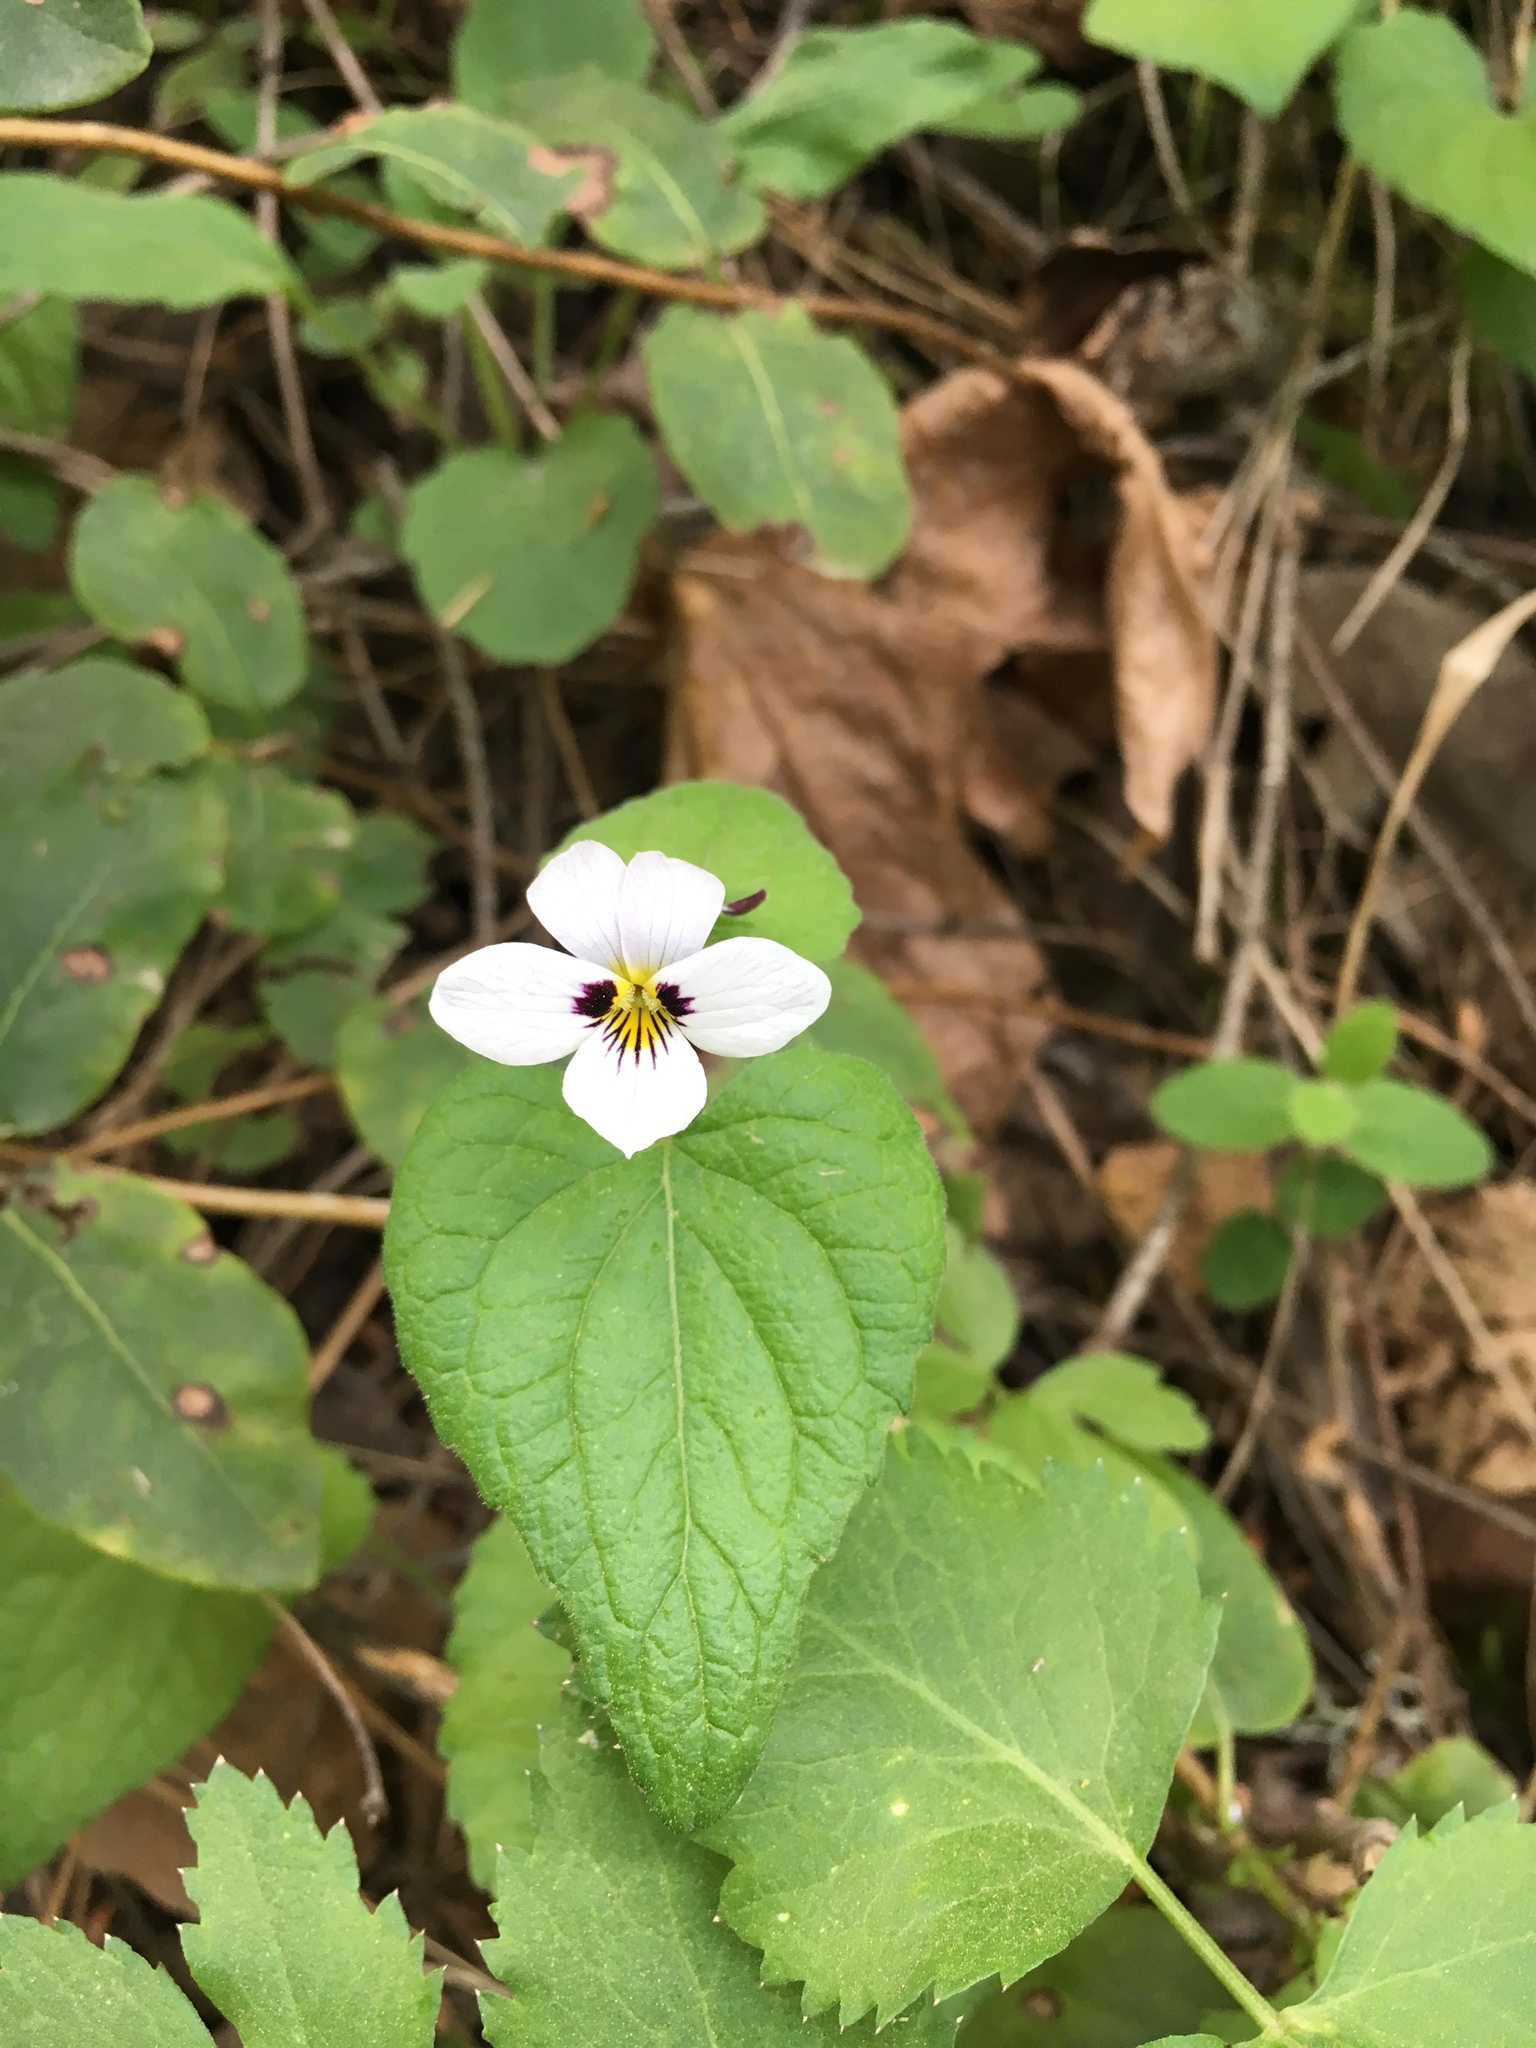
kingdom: Plantae
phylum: Tracheophyta
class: Magnoliopsida
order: Malpighiales
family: Violaceae
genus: Viola
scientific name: Viola ocellata
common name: Western heart's ease
